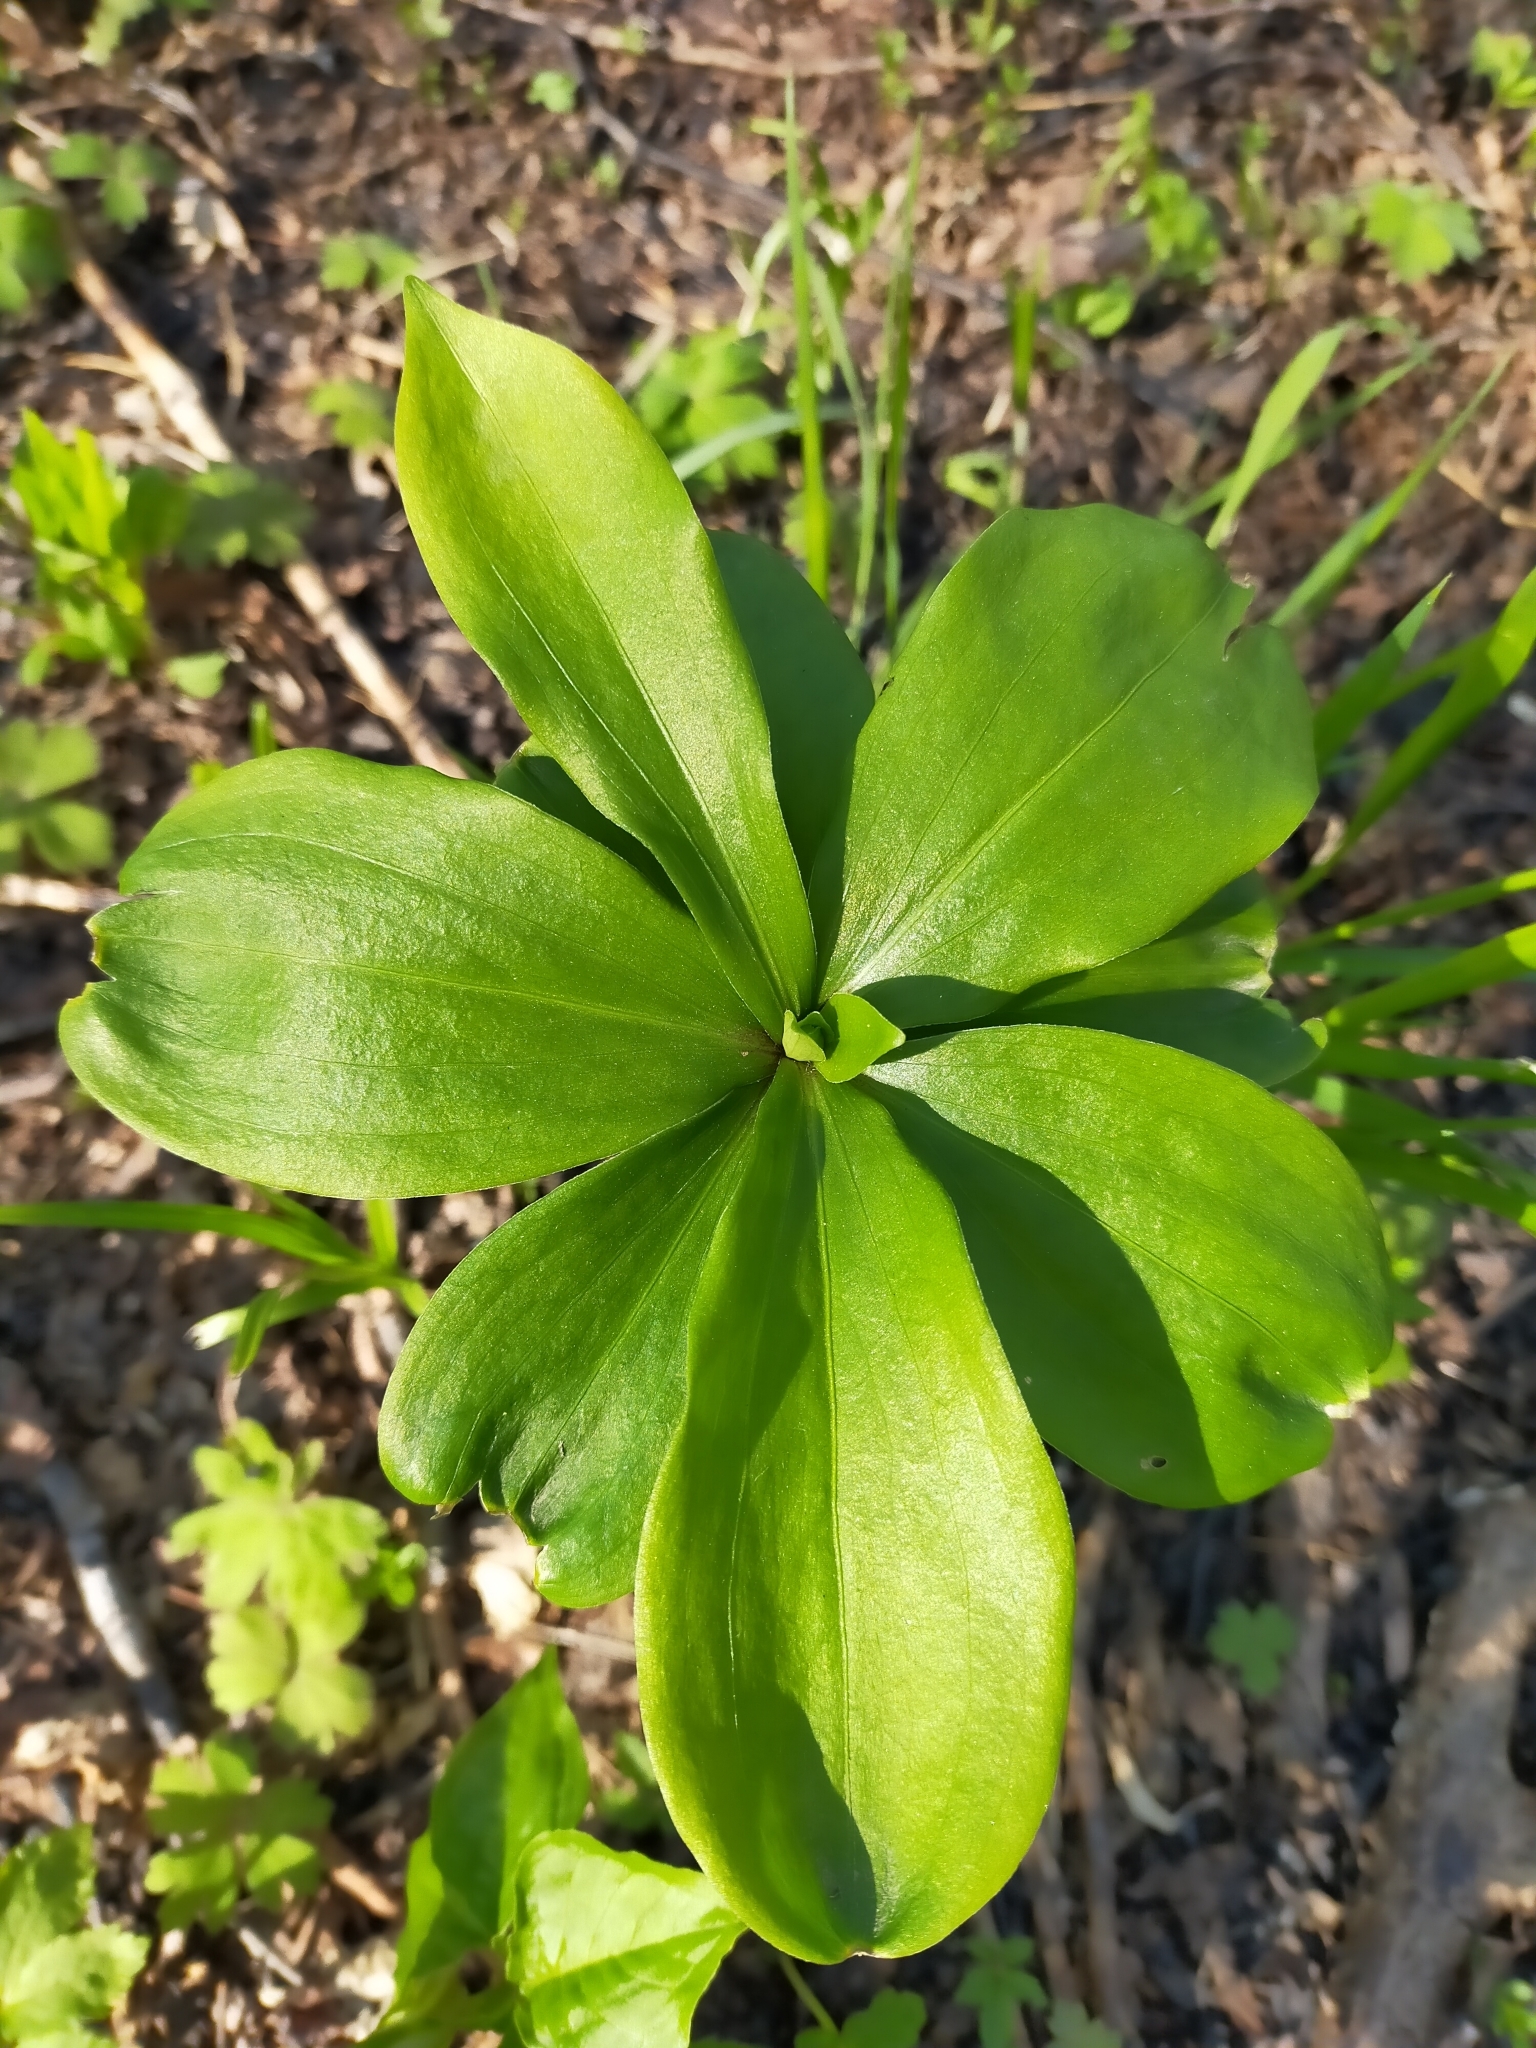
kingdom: Plantae
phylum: Tracheophyta
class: Liliopsida
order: Liliales
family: Liliaceae
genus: Lilium
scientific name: Lilium distichum
